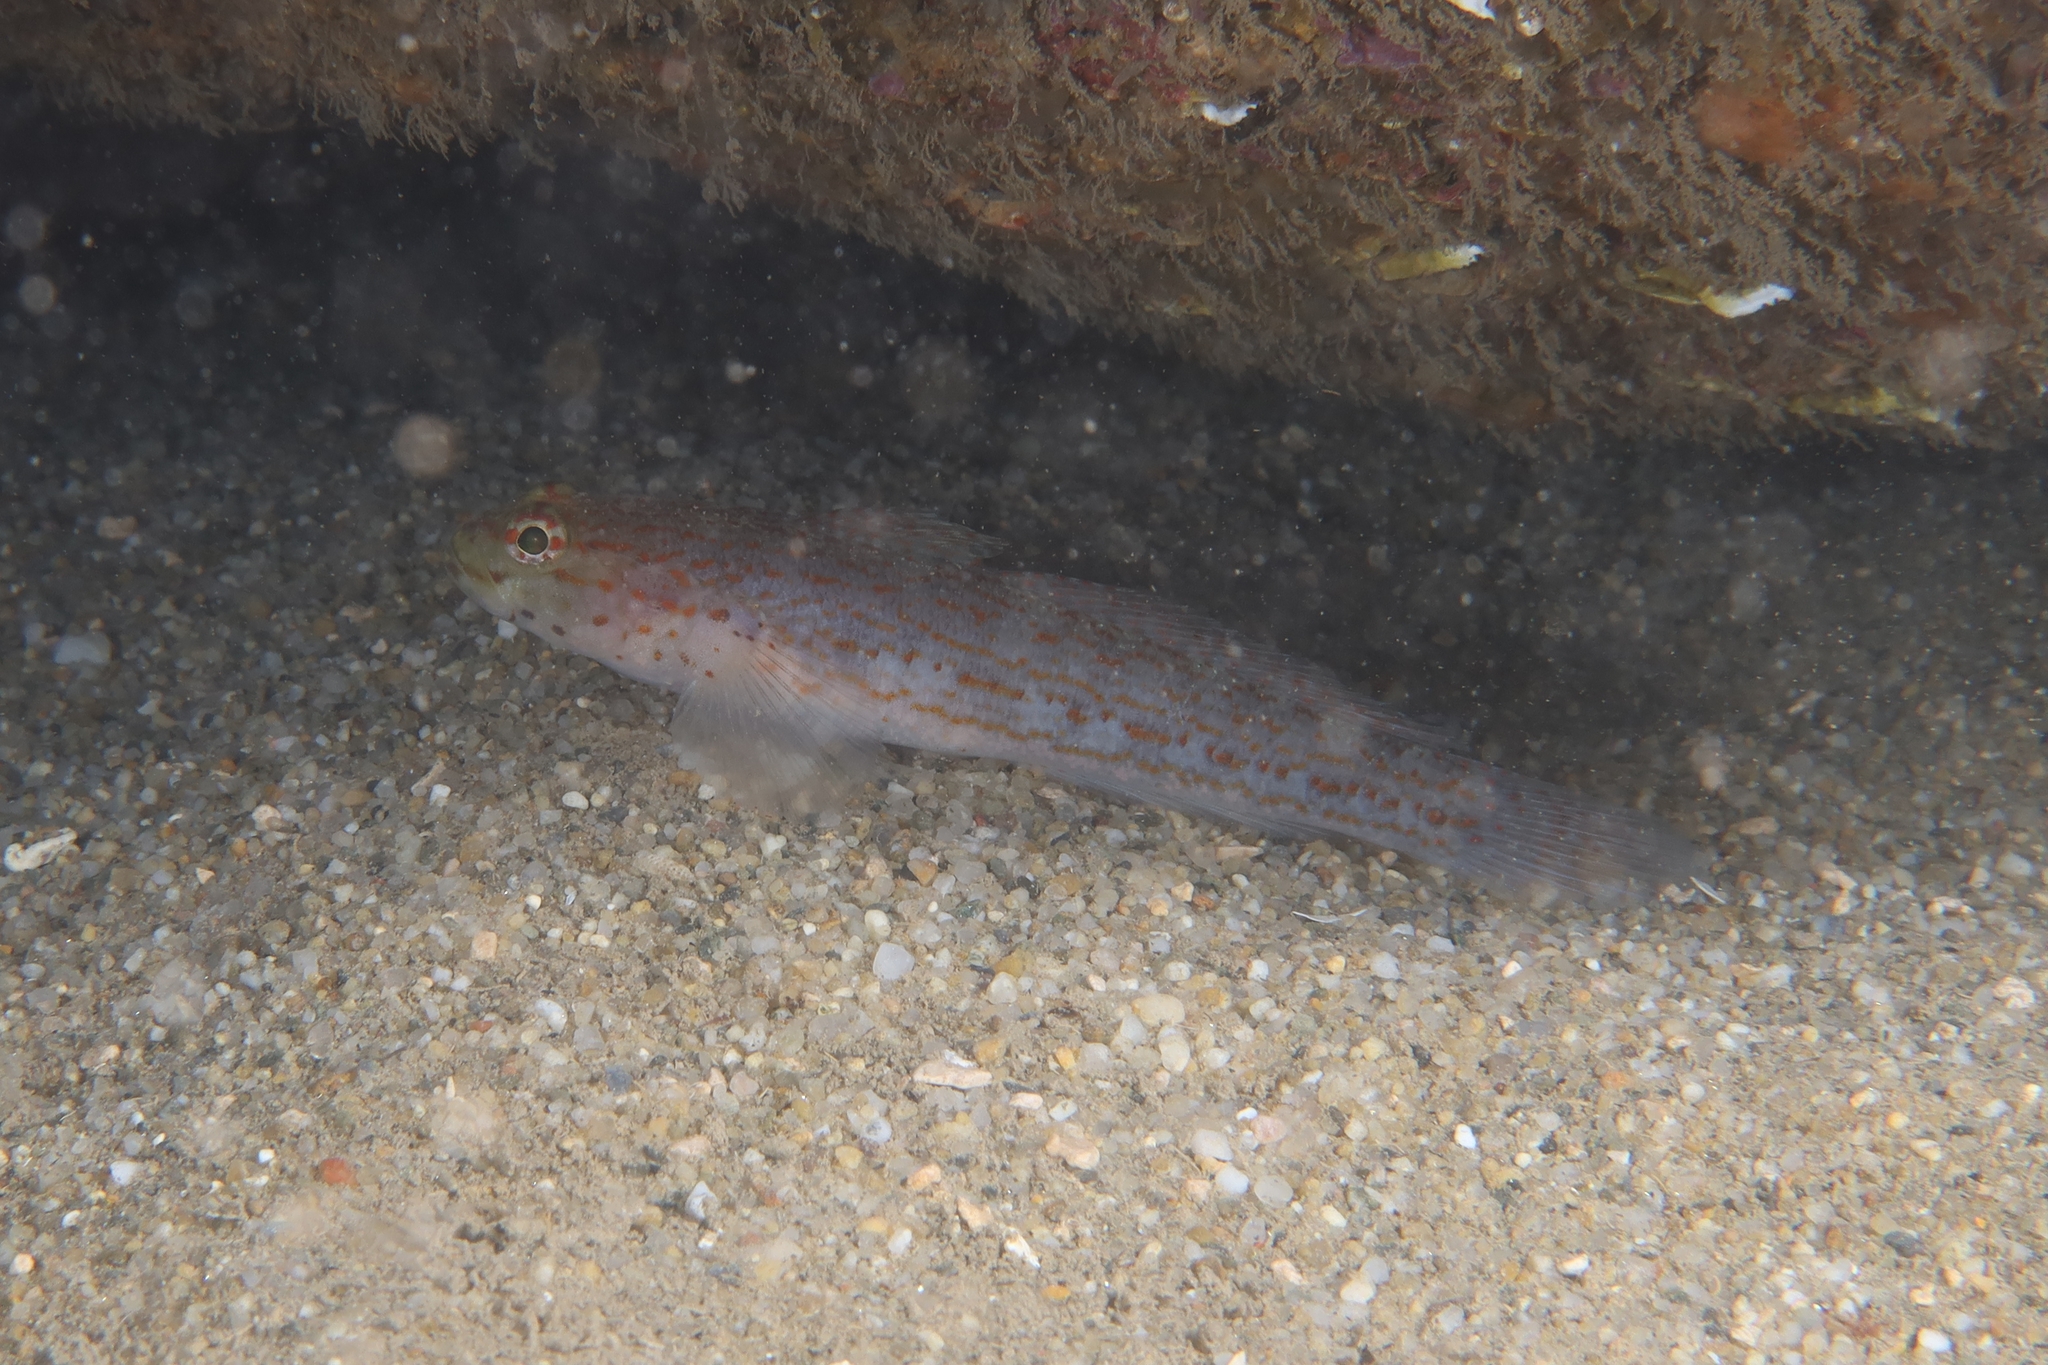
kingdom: Animalia
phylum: Chordata
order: Perciformes
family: Gobiidae
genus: Gobius
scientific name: Gobius xanthocephalus
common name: Golden goby
